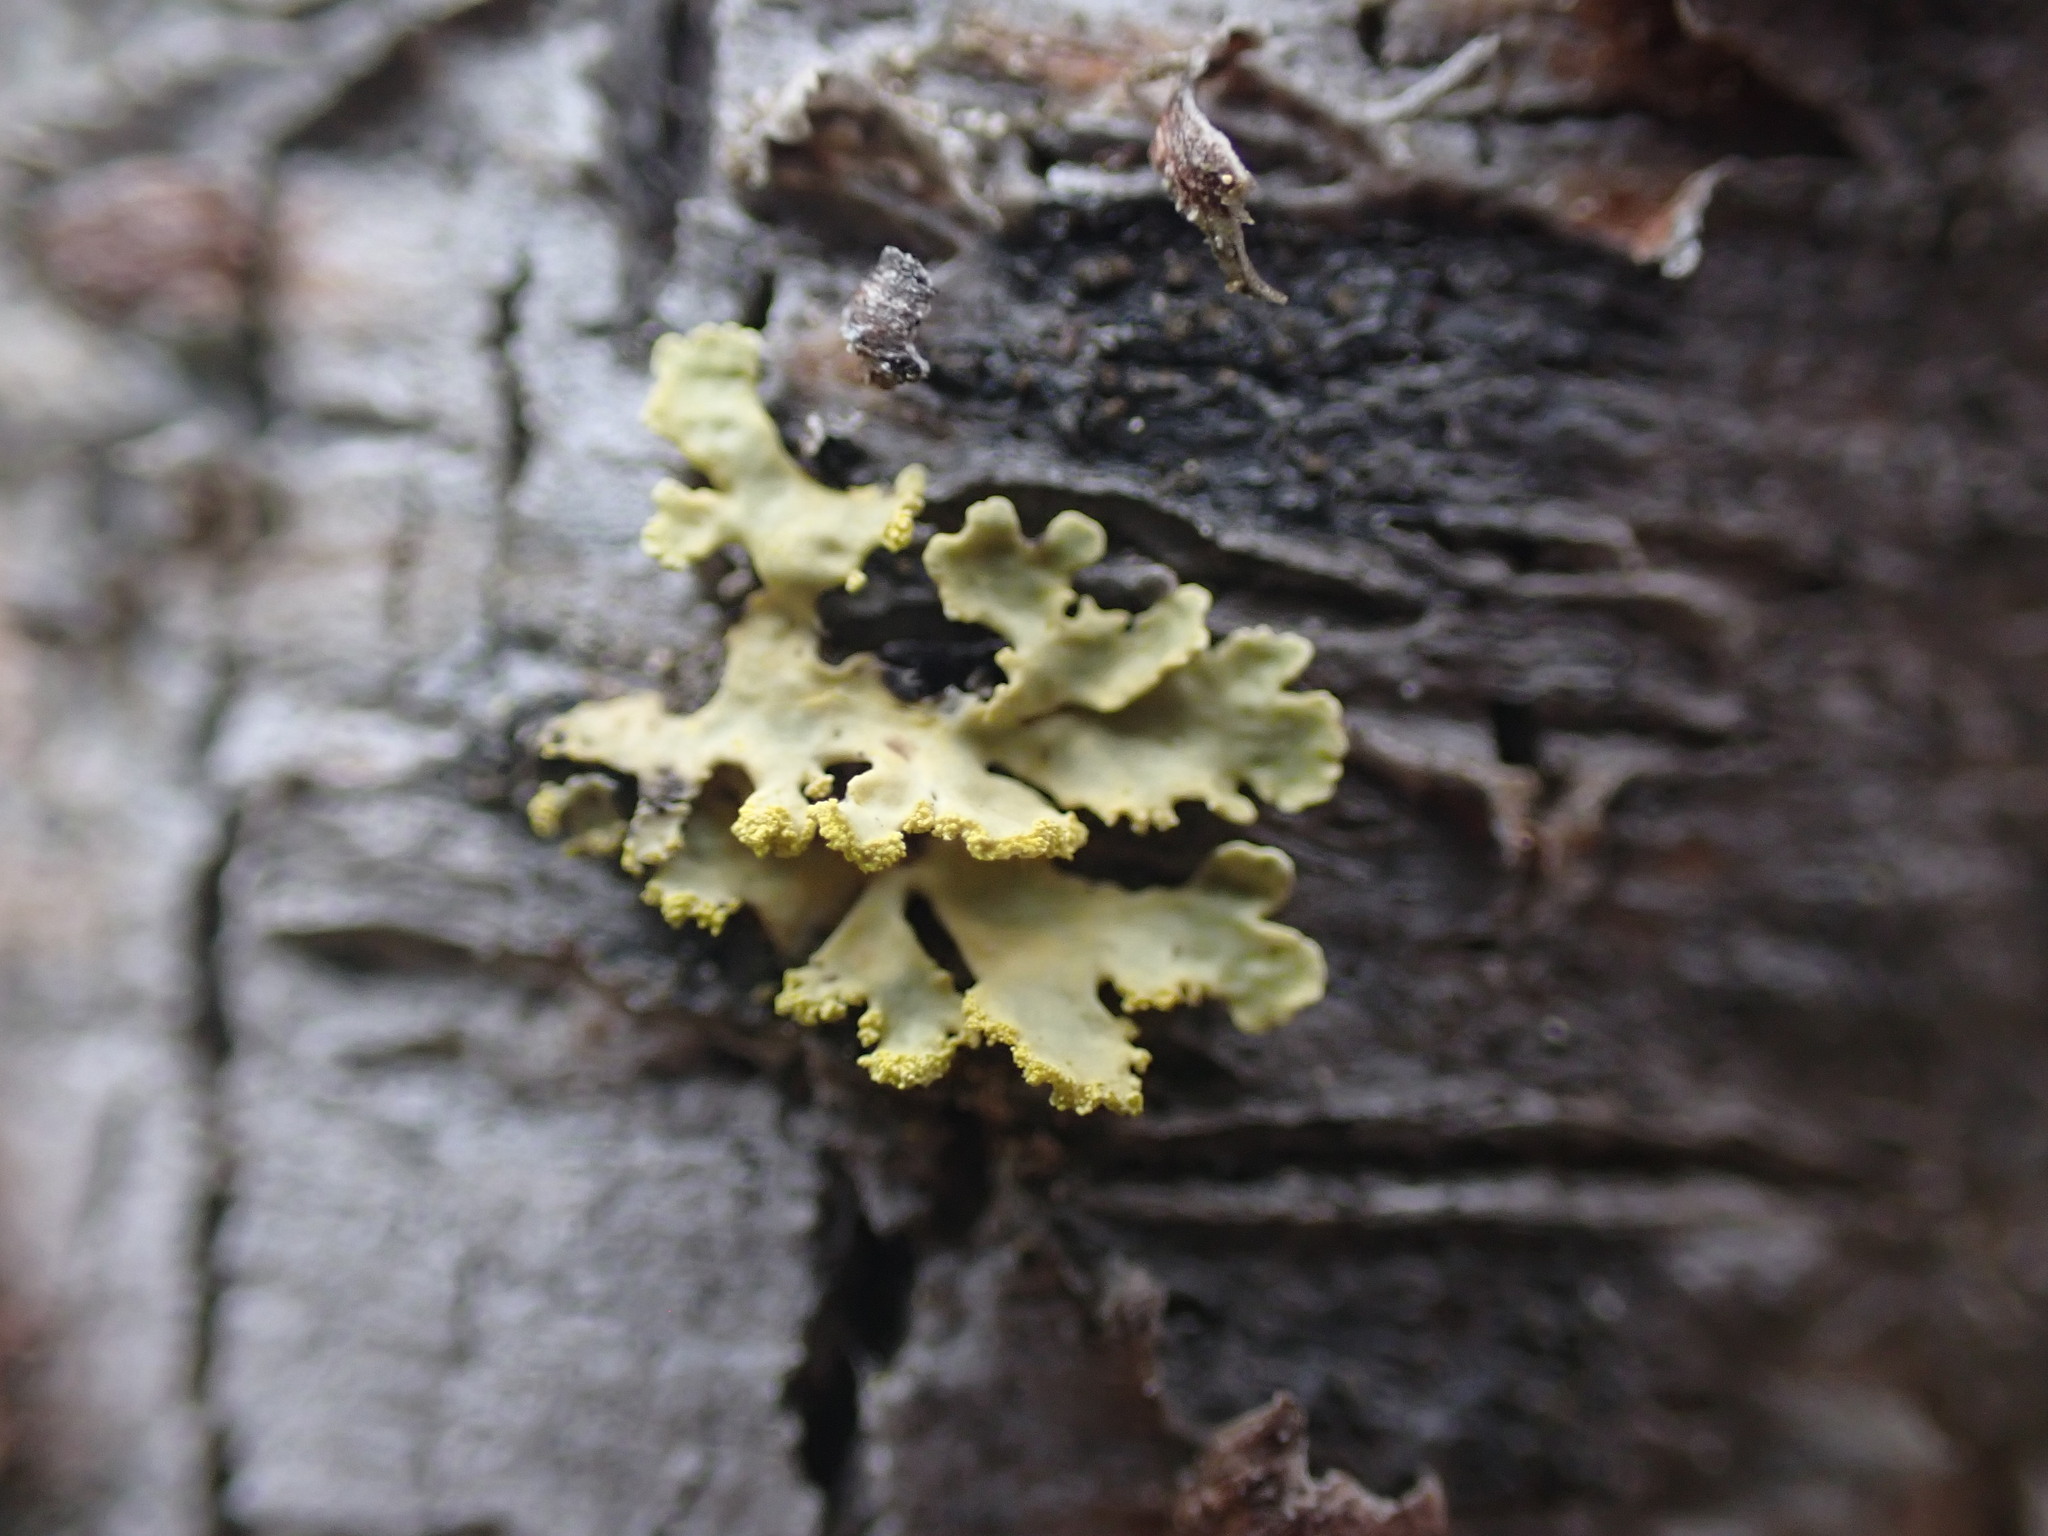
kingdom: Fungi
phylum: Ascomycota
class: Lecanoromycetes
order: Lecanorales
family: Parmeliaceae
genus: Vulpicida
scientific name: Vulpicida pinastri
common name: Powdered sunshine lichen
